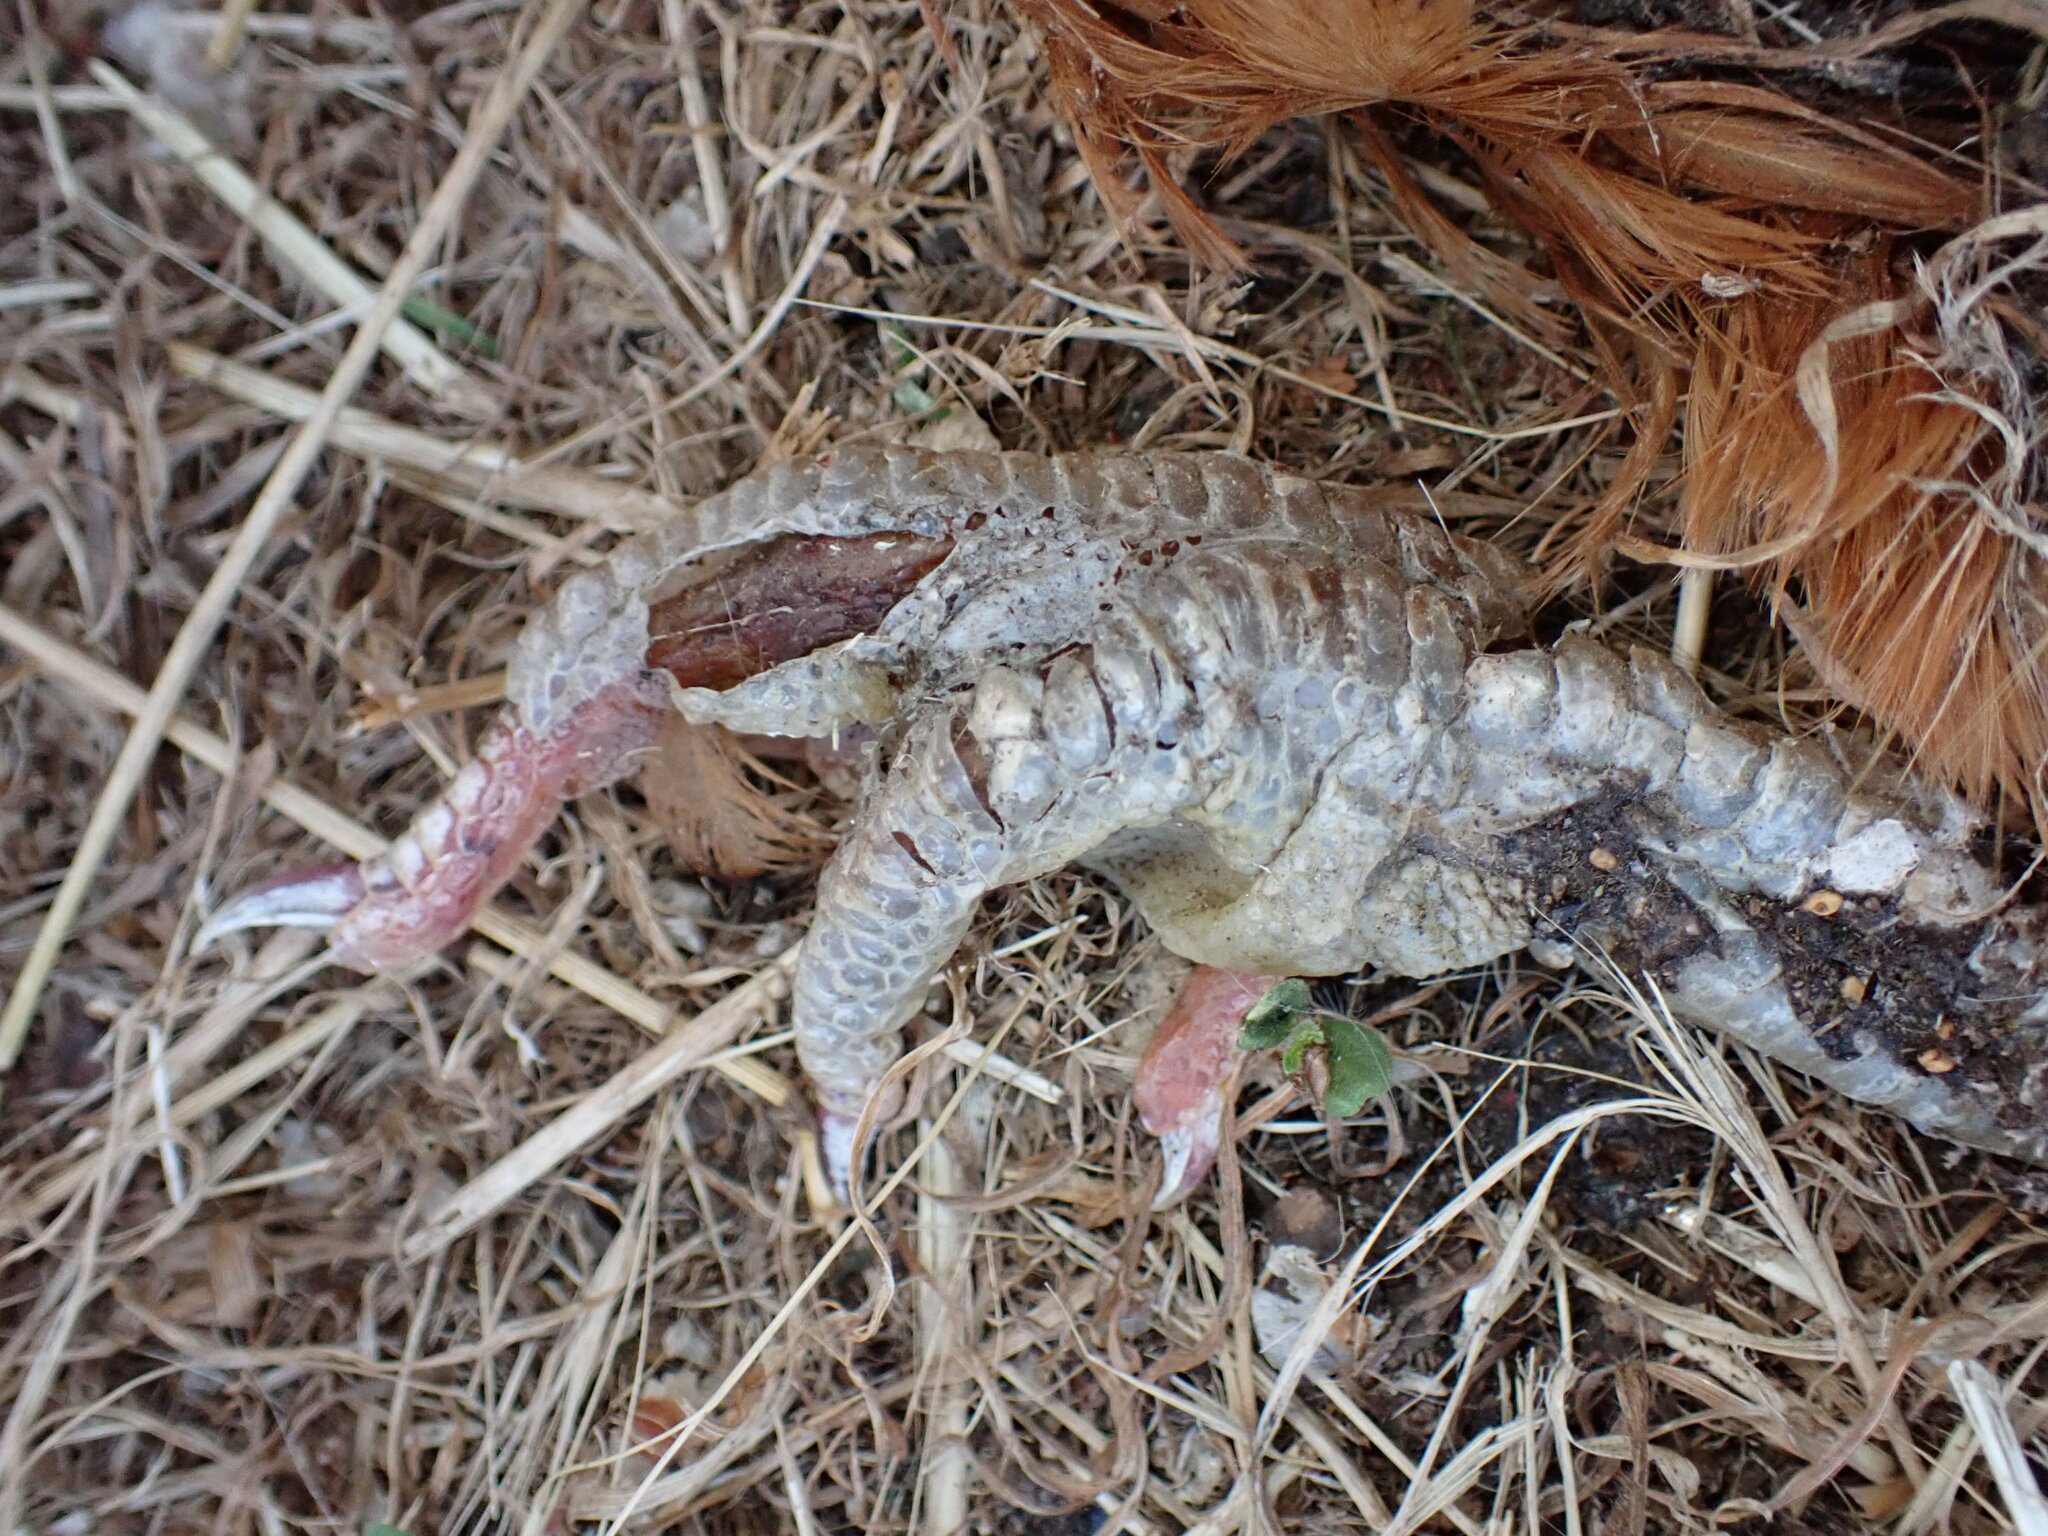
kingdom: Animalia
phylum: Chordata
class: Aves
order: Galliformes
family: Phasianidae
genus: Gallus
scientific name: Gallus gallus
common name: Red junglefowl
